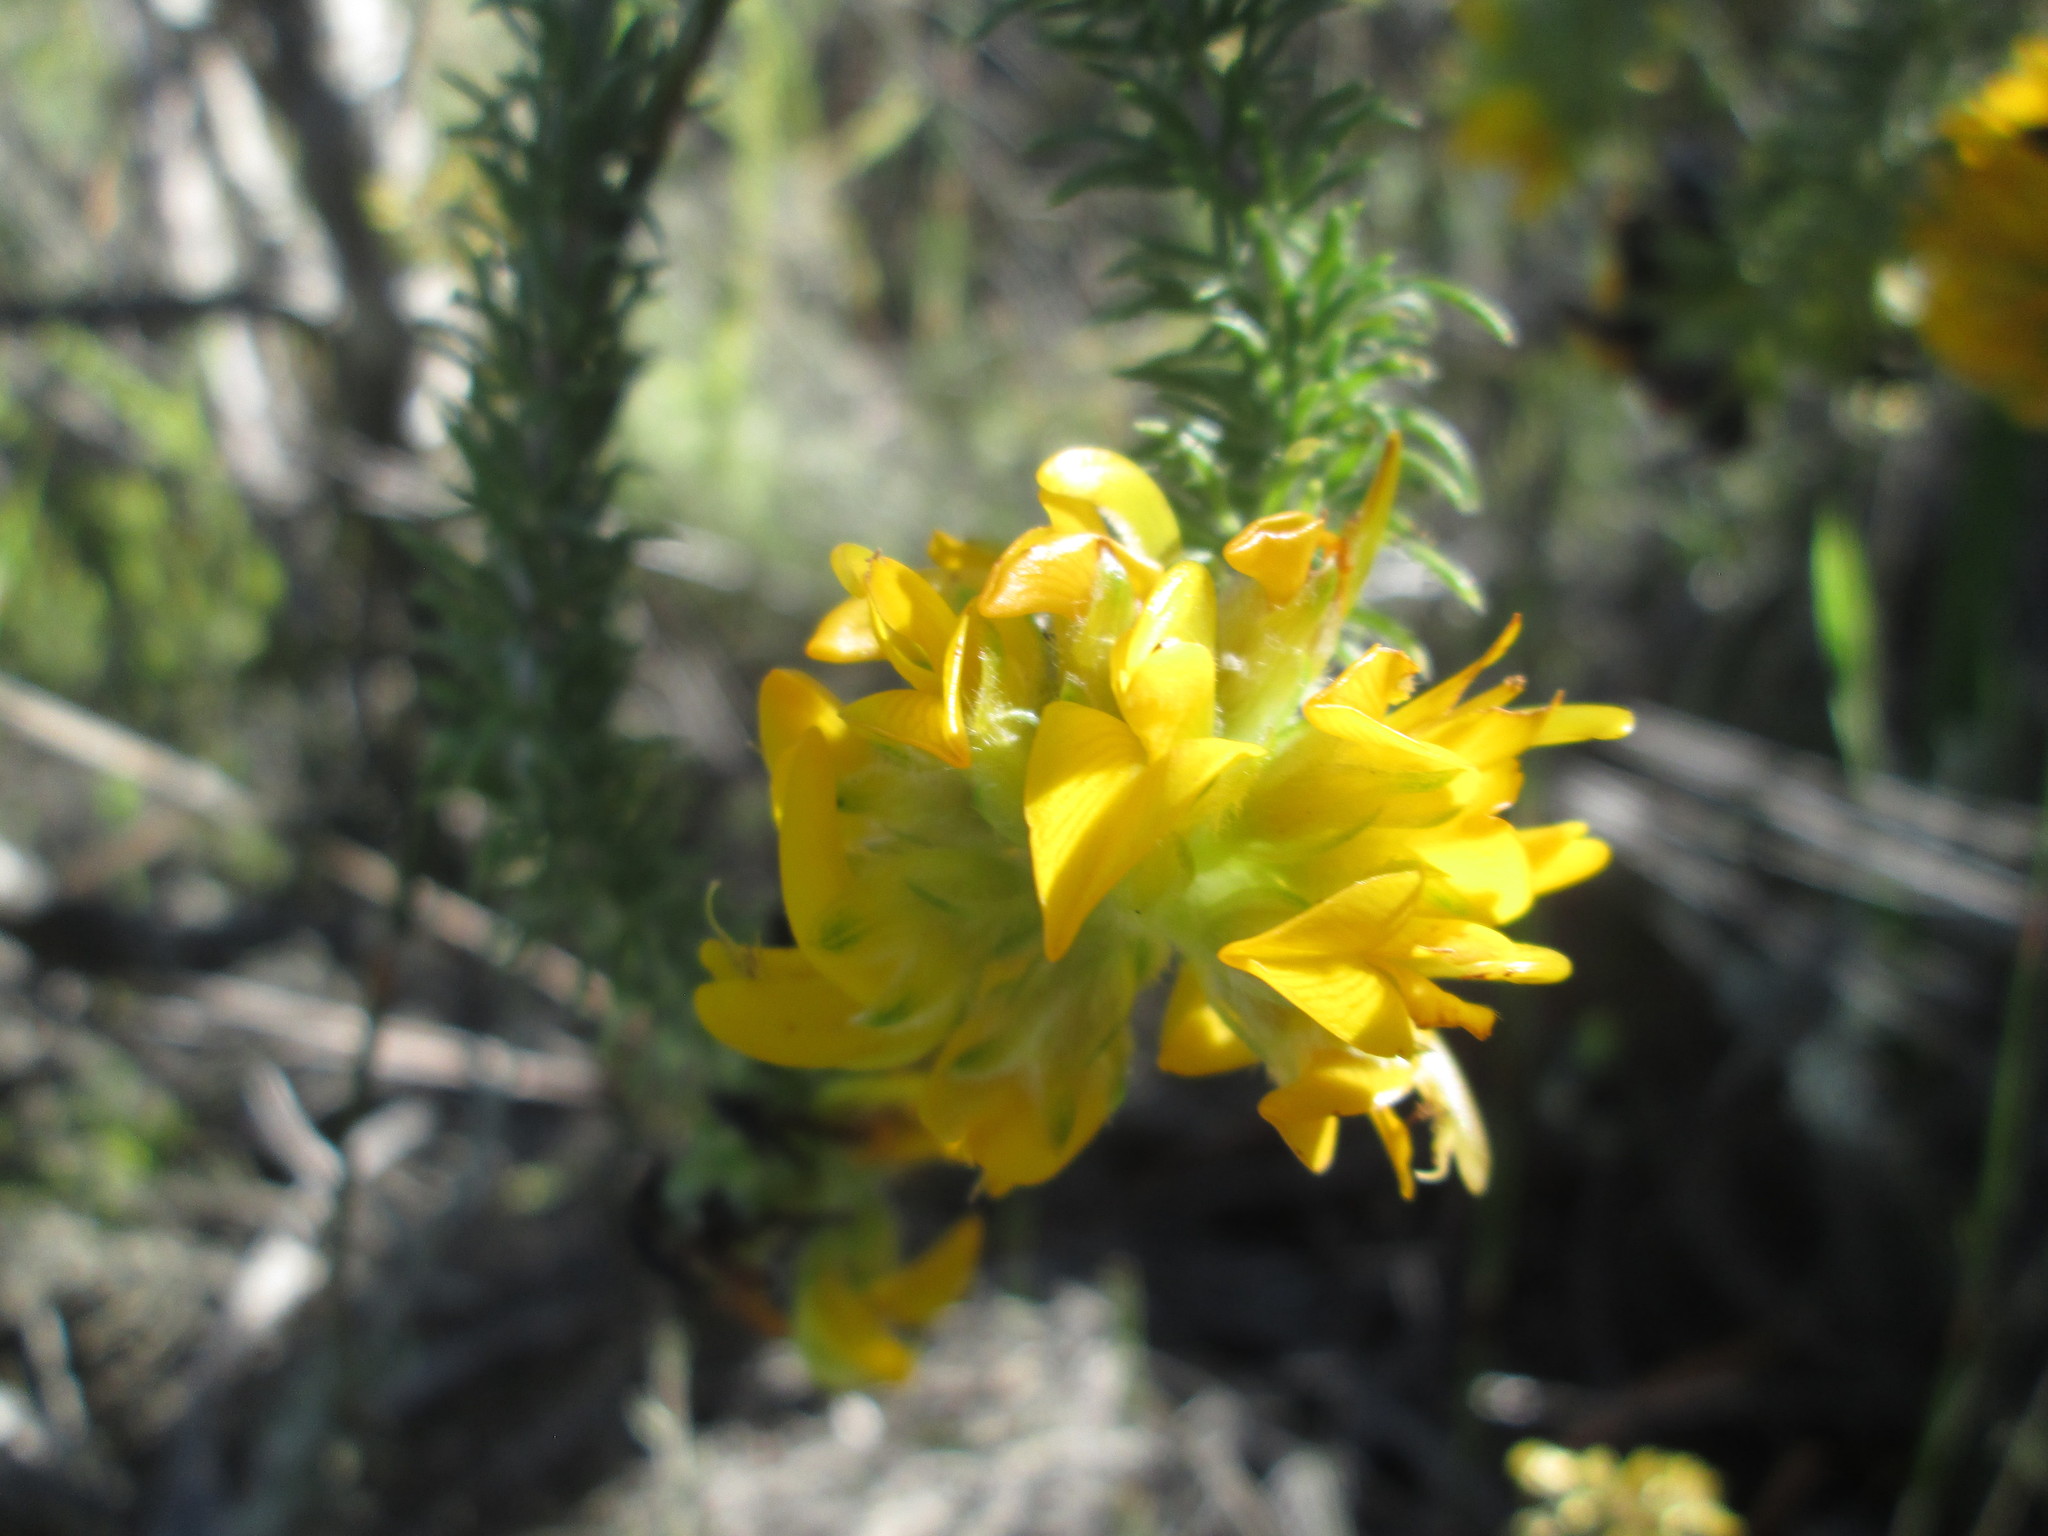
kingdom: Plantae
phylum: Tracheophyta
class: Magnoliopsida
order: Fabales
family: Fabaceae
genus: Aspalathus
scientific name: Aspalathus capitata
